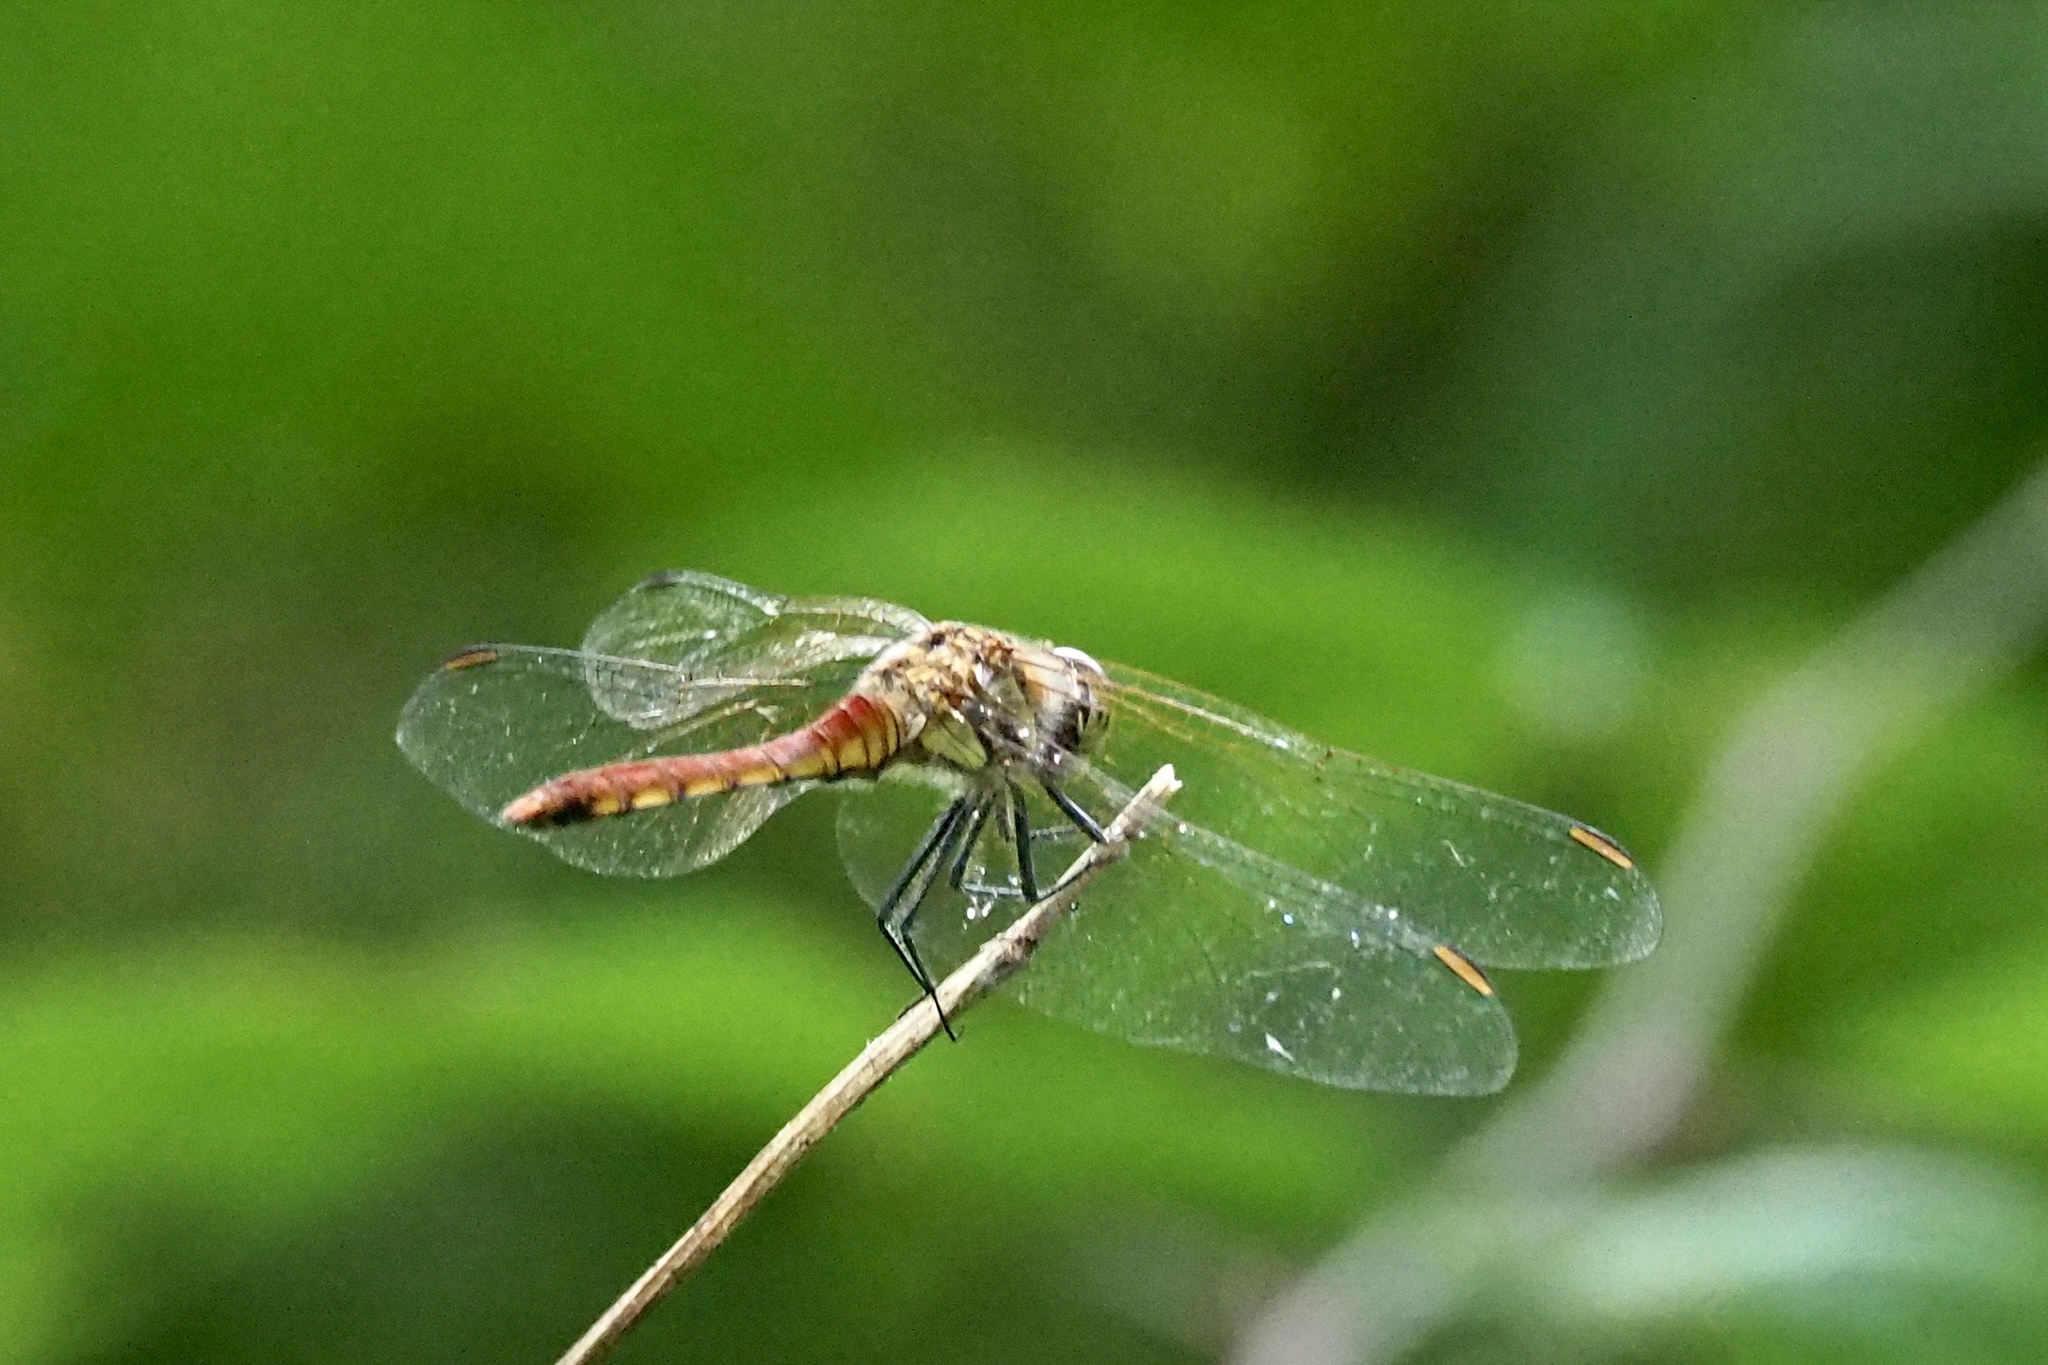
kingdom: Animalia
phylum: Arthropoda
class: Insecta
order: Odonata
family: Libellulidae
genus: Sympetrum
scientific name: Sympetrum darwinianum
